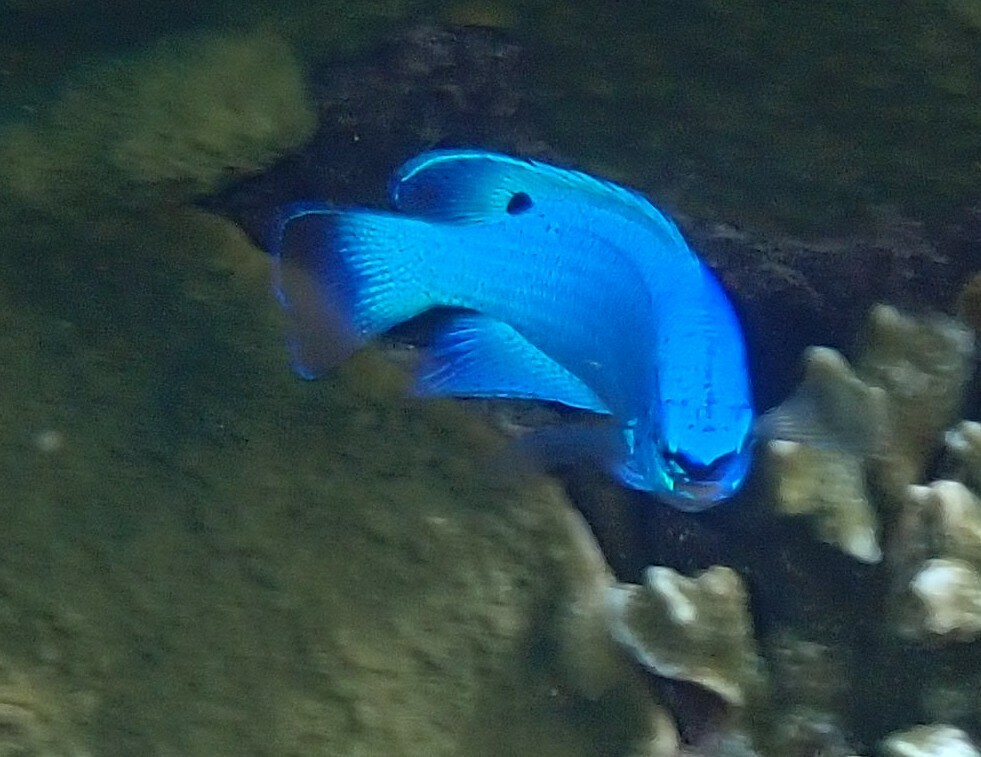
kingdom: Animalia
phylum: Chordata
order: Perciformes
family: Pomacentridae
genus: Chrysiptera
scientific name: Chrysiptera cyanea
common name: Blue devil
